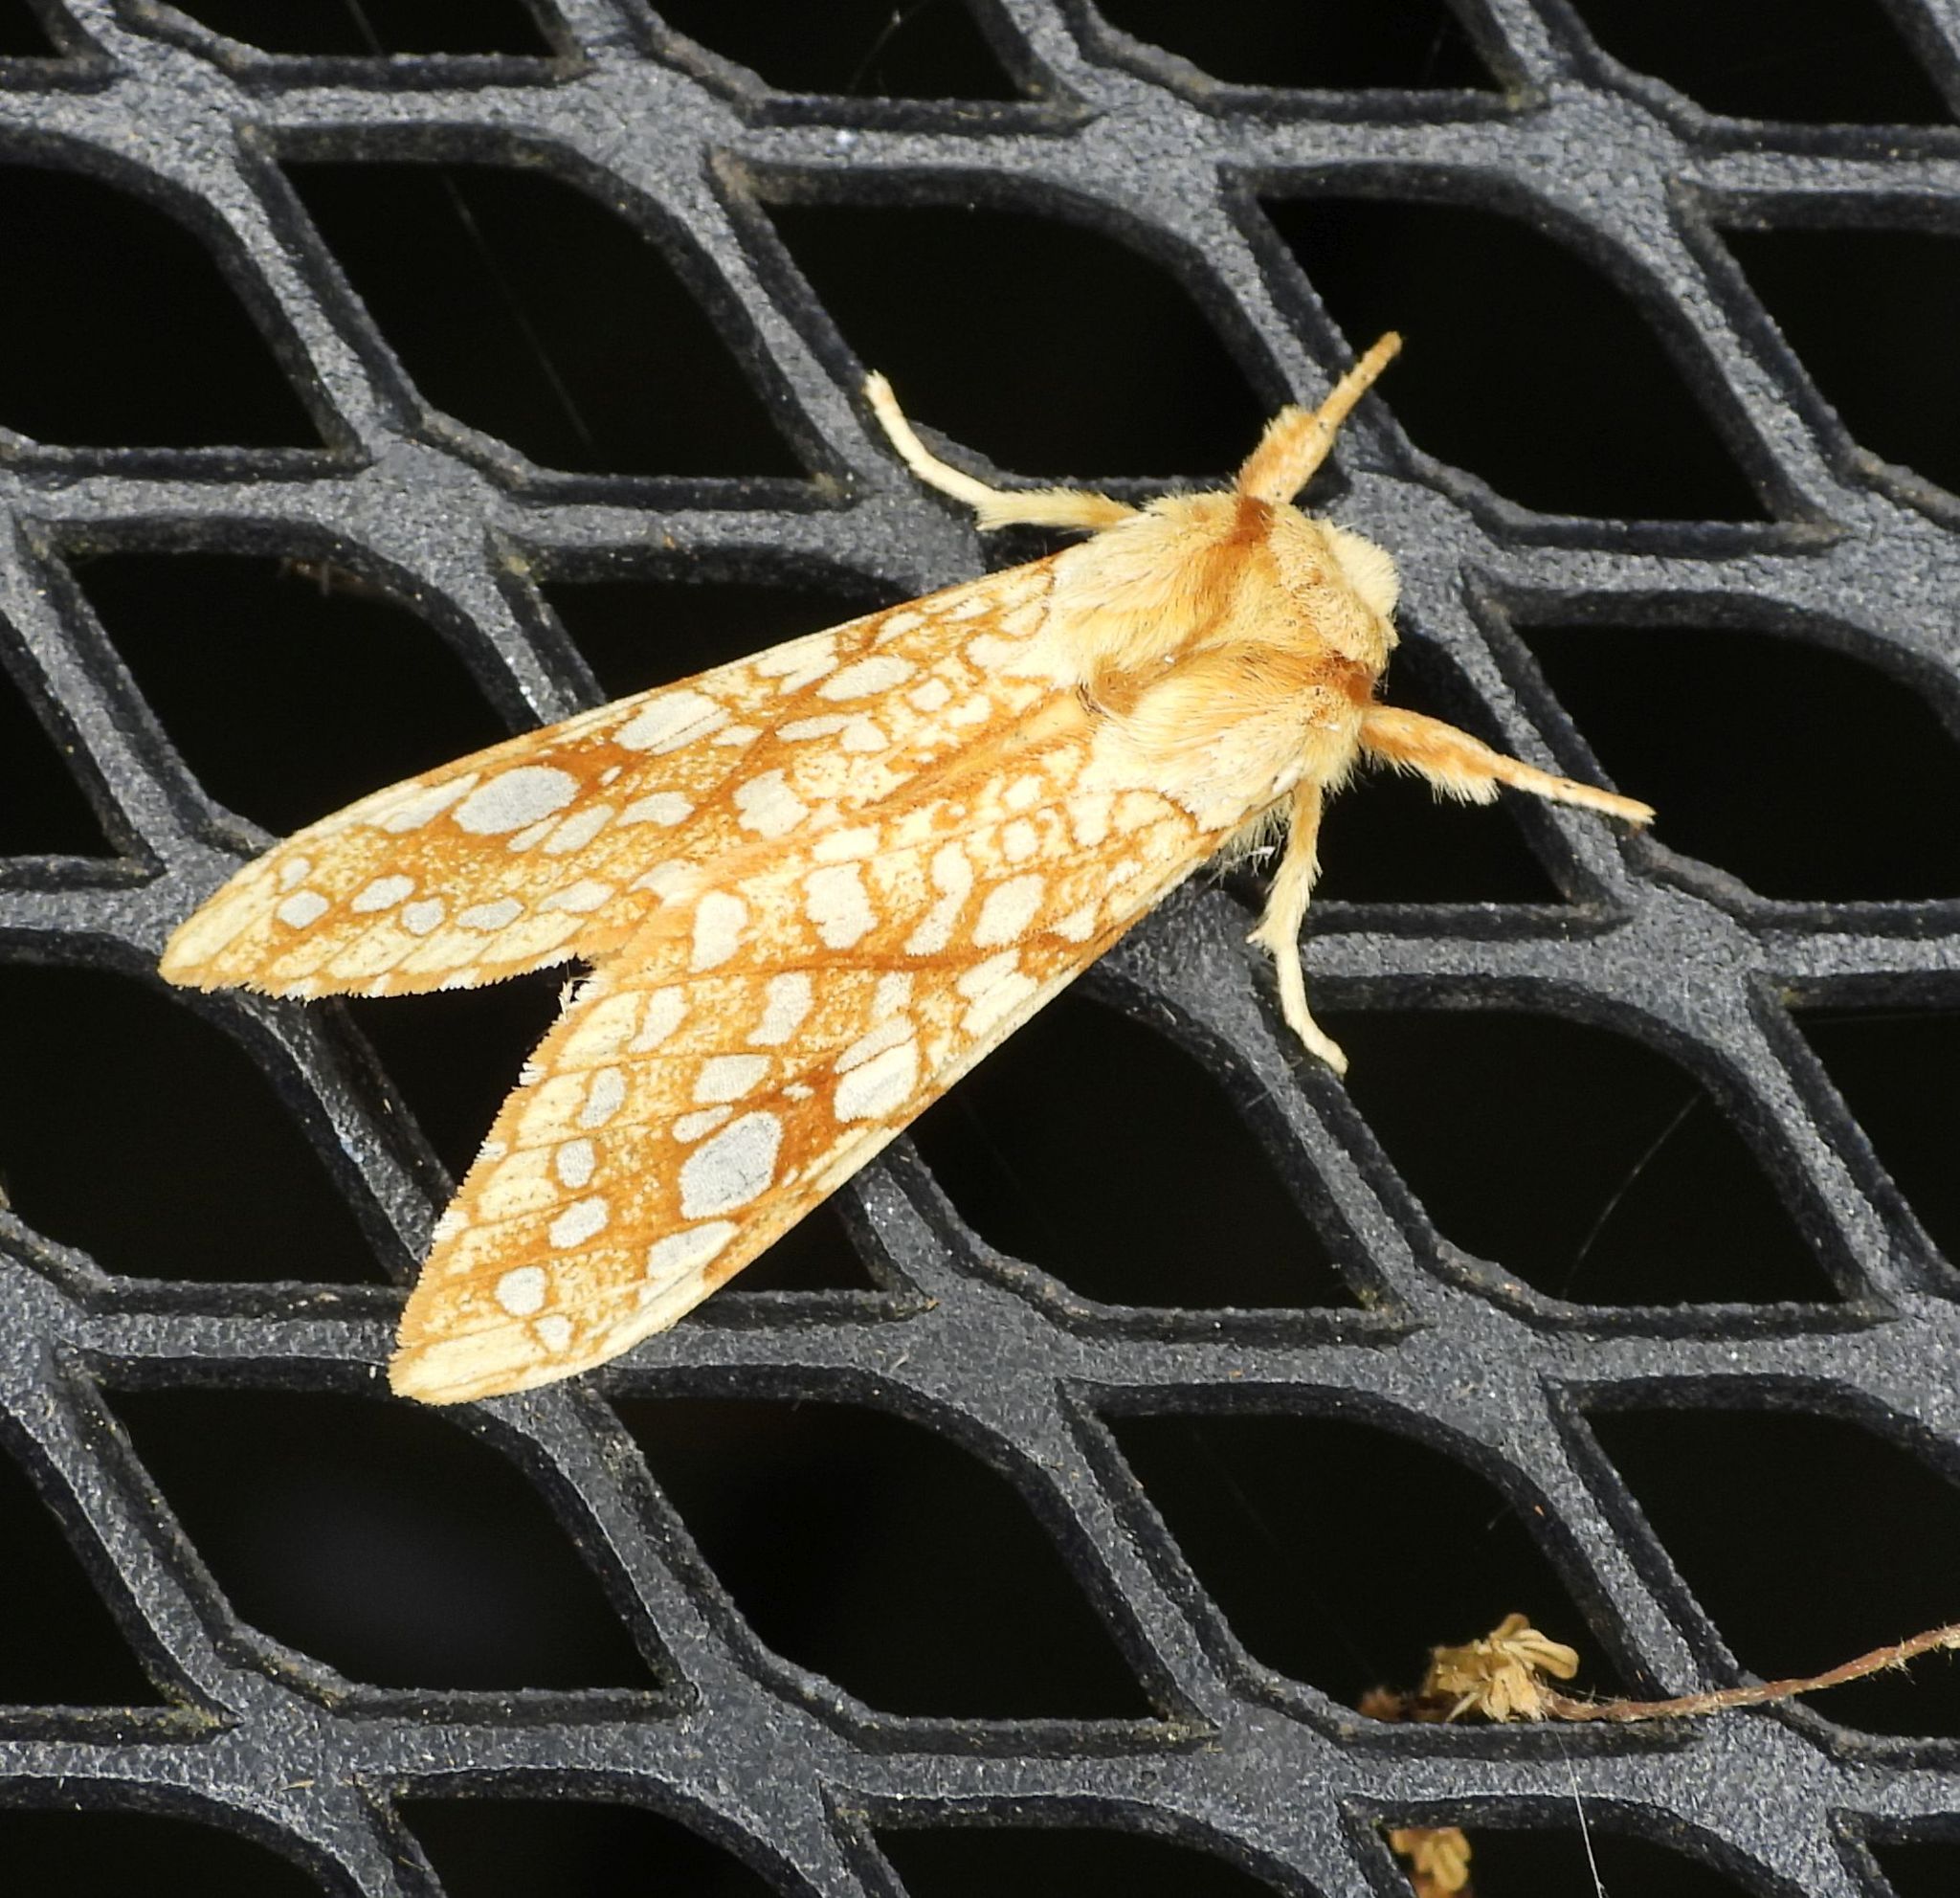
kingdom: Animalia
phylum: Arthropoda
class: Insecta
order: Lepidoptera
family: Erebidae
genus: Lophocampa
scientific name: Lophocampa caryae
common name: Hickory tussock moth
